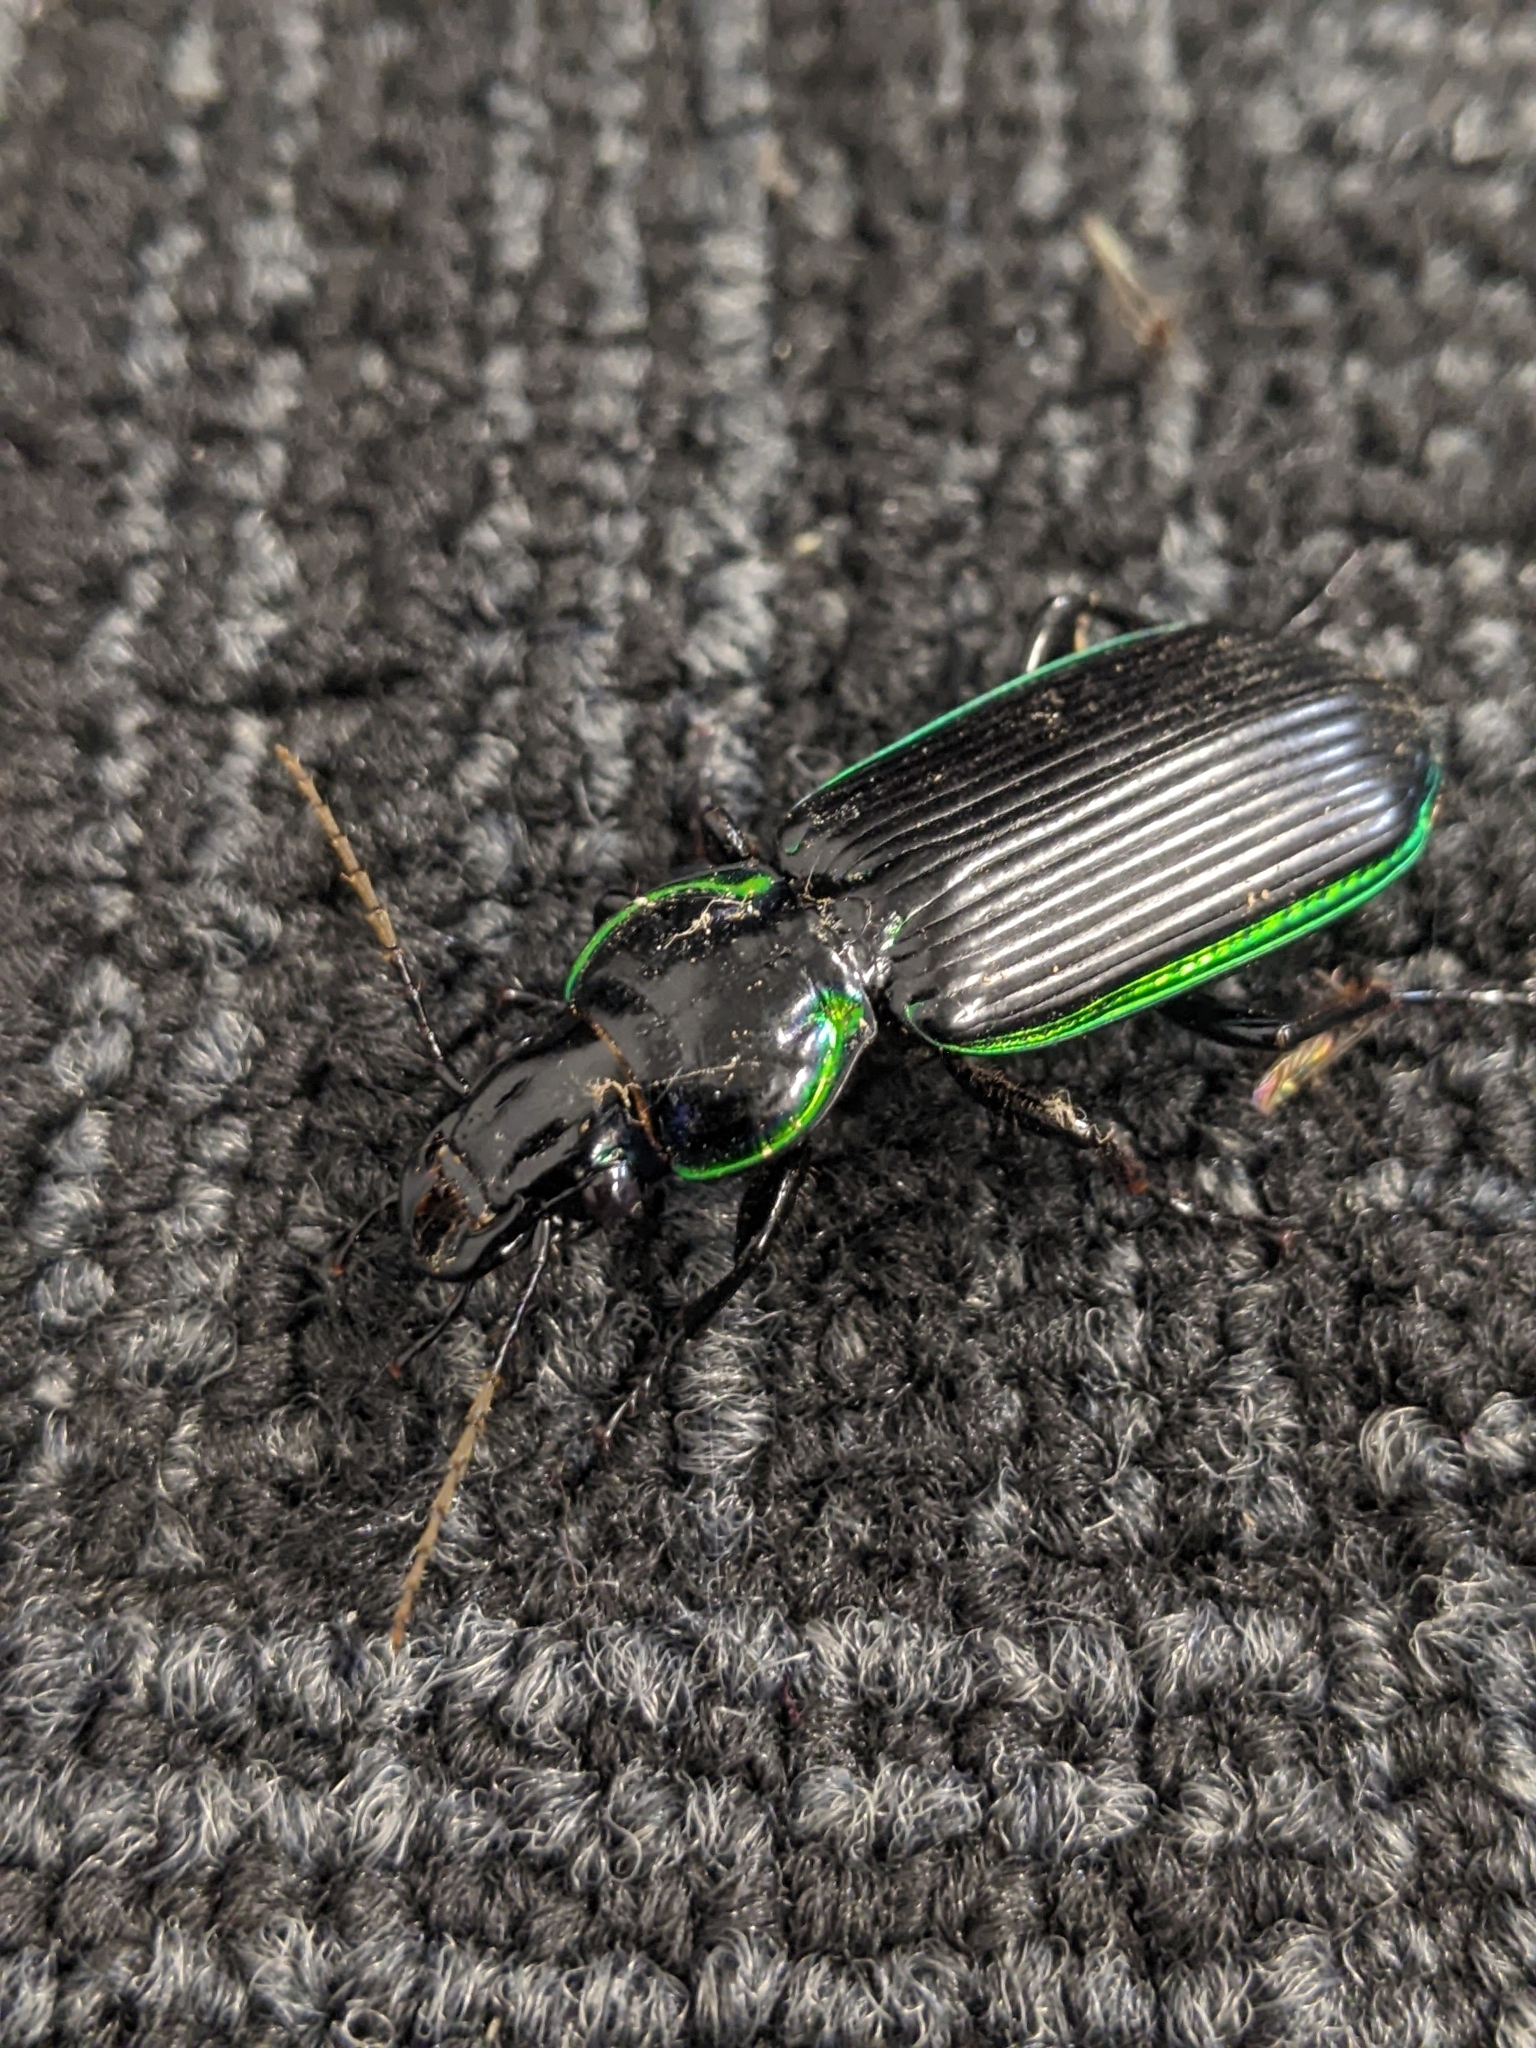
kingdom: Animalia
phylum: Arthropoda
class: Insecta
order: Coleoptera
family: Carabidae
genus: Catadromus
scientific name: Catadromus lacordairei
